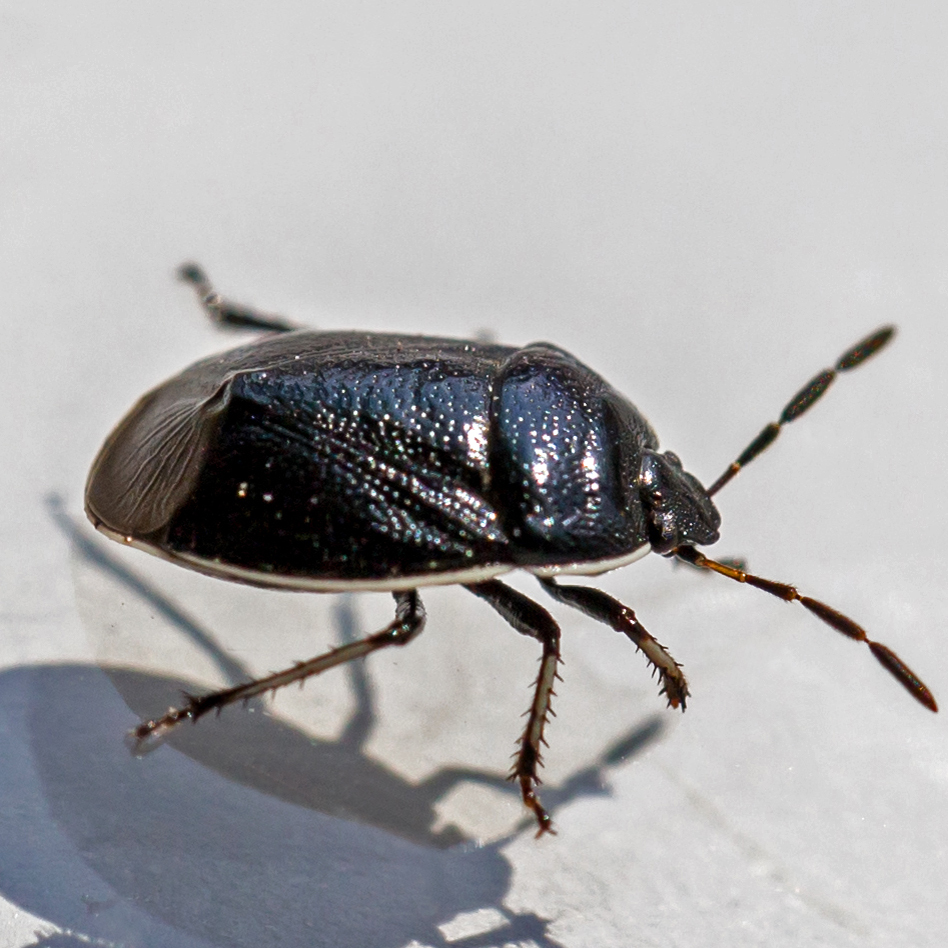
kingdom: Animalia
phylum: Arthropoda
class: Insecta
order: Hemiptera
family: Cydnidae
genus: Sehirus
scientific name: Sehirus cinctus
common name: White-margined burrower bug
